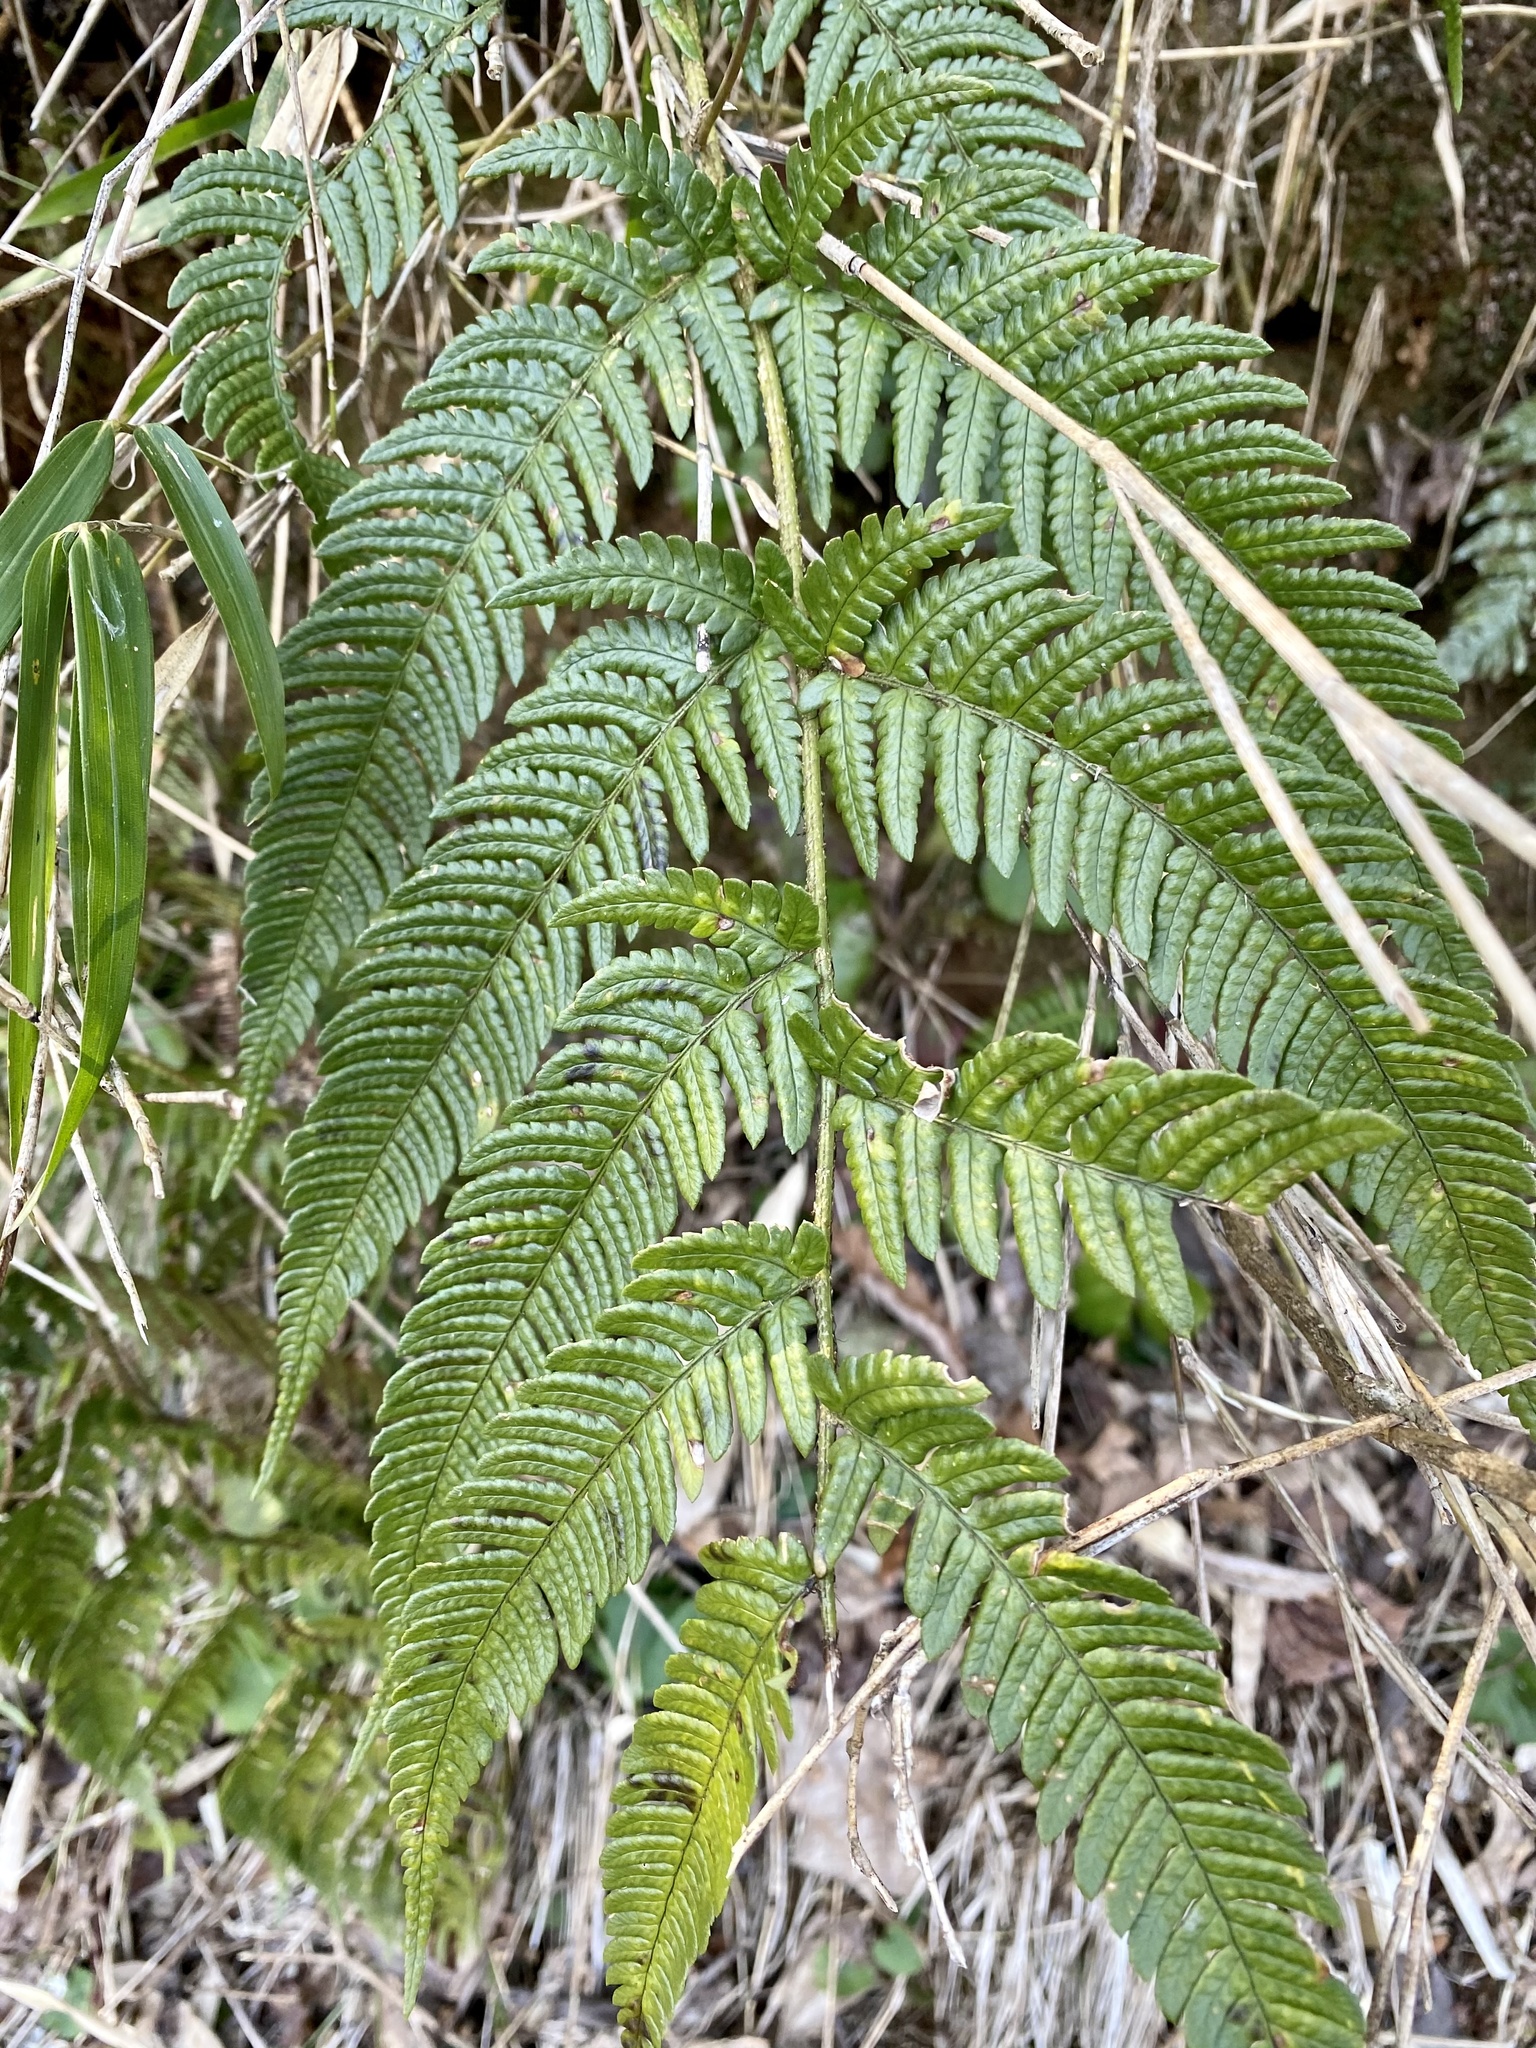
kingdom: Plantae
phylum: Tracheophyta
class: Polypodiopsida
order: Polypodiales
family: Dryopteridaceae
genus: Dryopteris
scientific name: Dryopteris bissetiana
